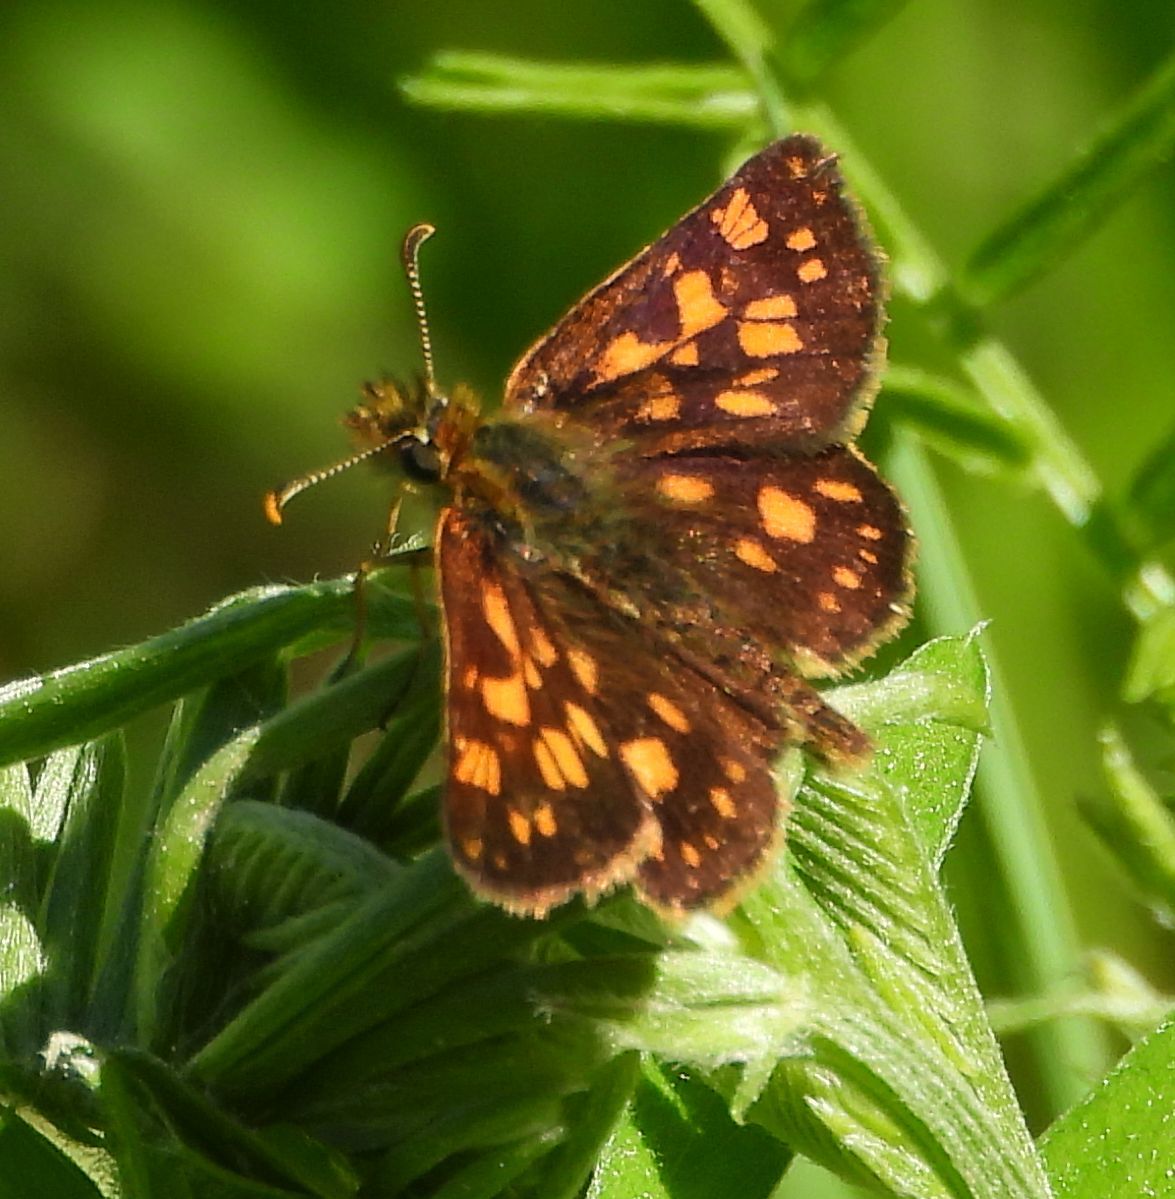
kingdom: Animalia
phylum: Arthropoda
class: Insecta
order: Lepidoptera
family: Hesperiidae
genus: Carterocephalus
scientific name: Carterocephalus mandan
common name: Arctic skipperling
